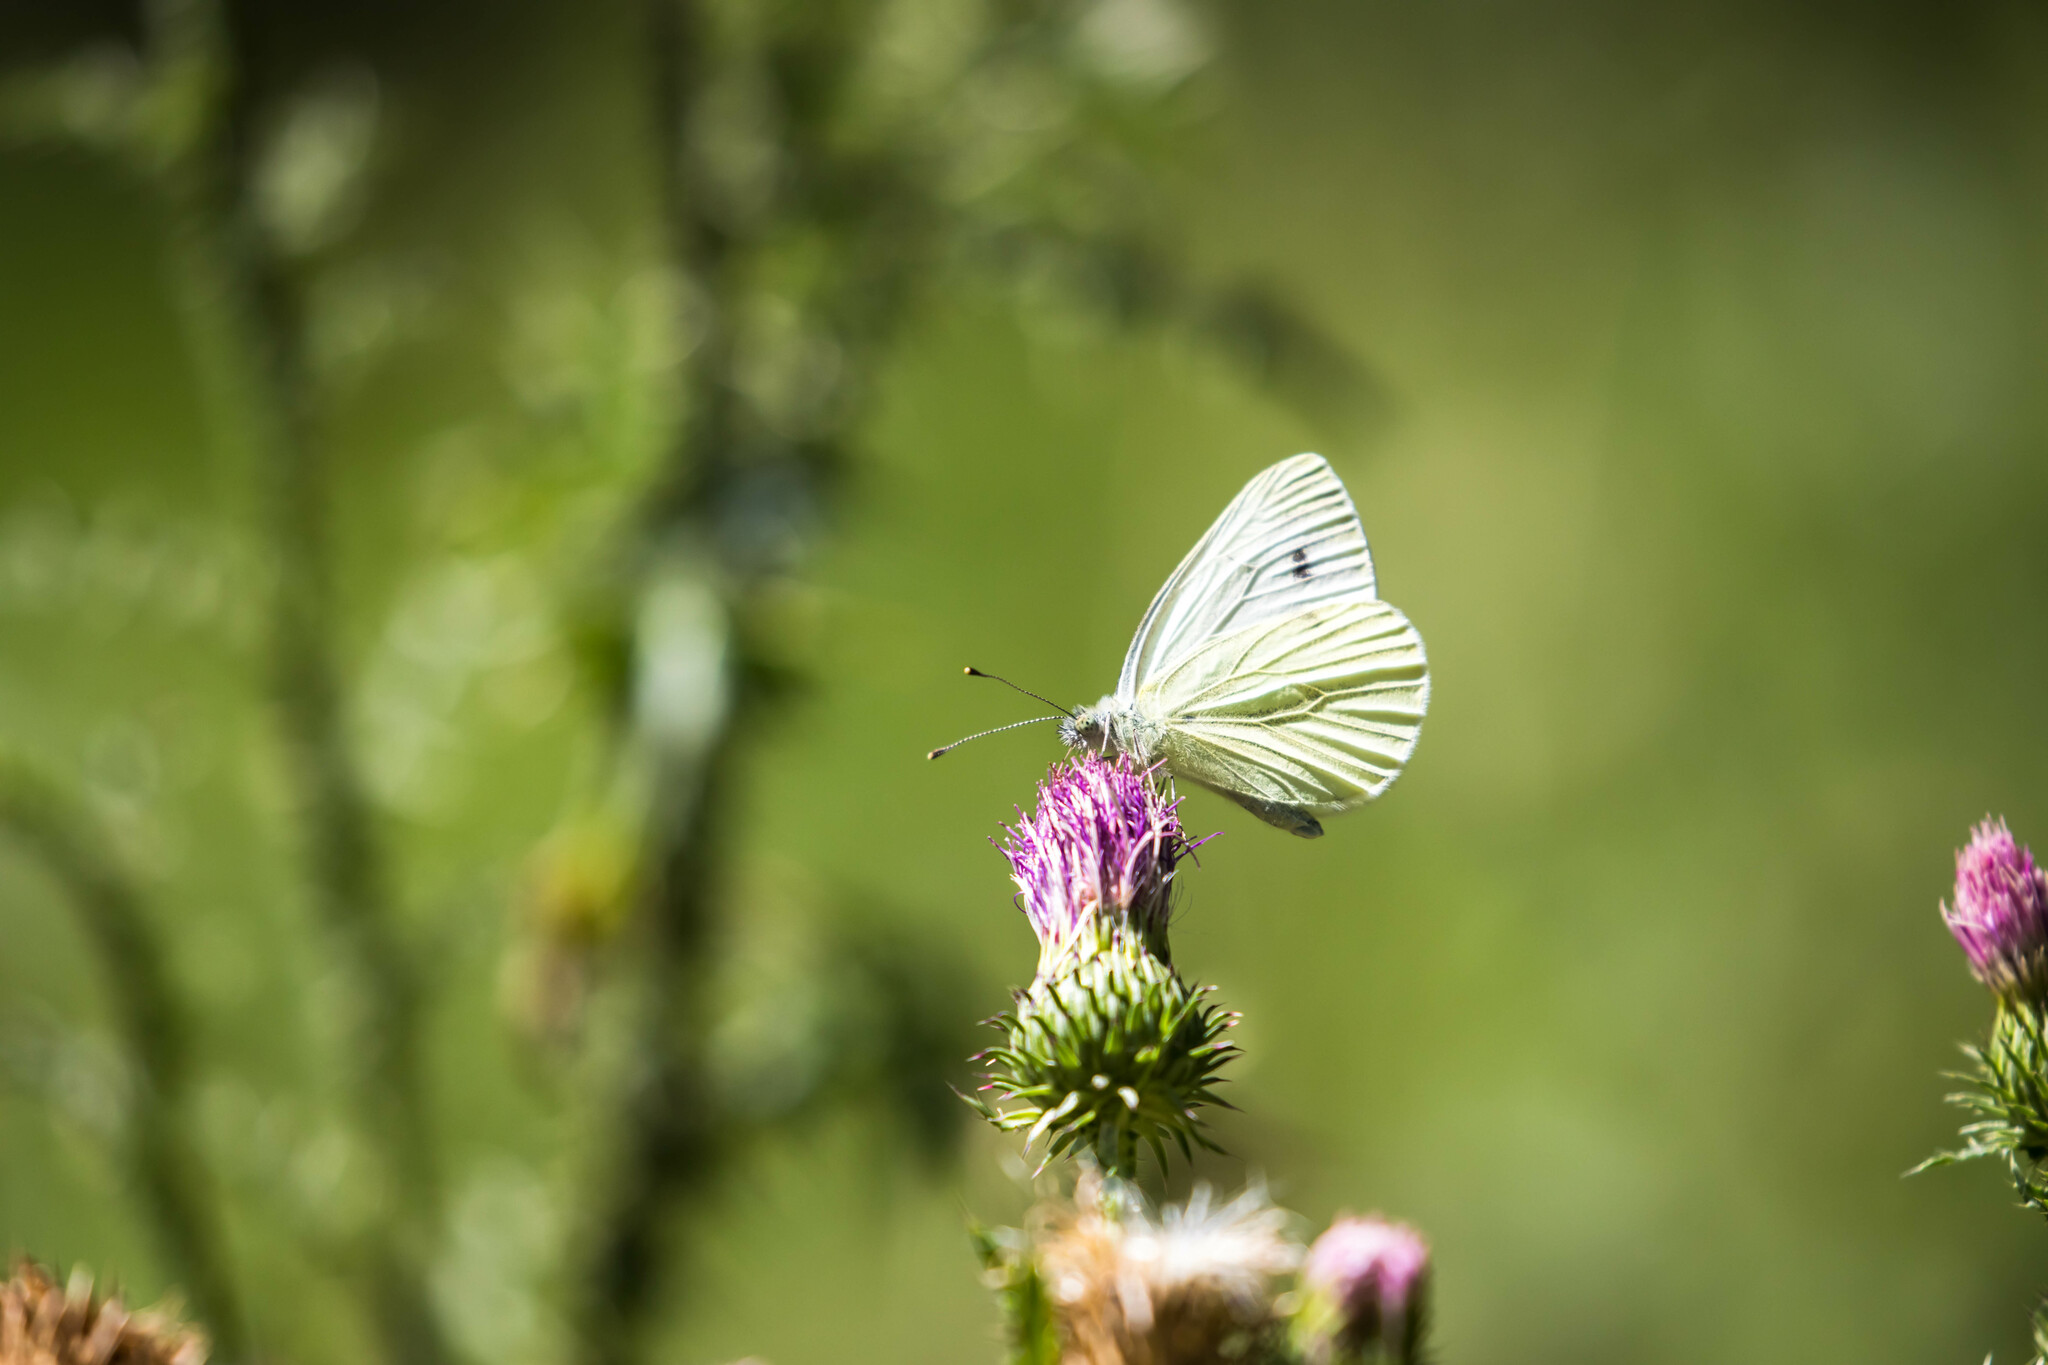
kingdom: Animalia
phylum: Arthropoda
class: Insecta
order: Lepidoptera
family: Pieridae
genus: Pieris
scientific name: Pieris napi
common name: Green-veined white
